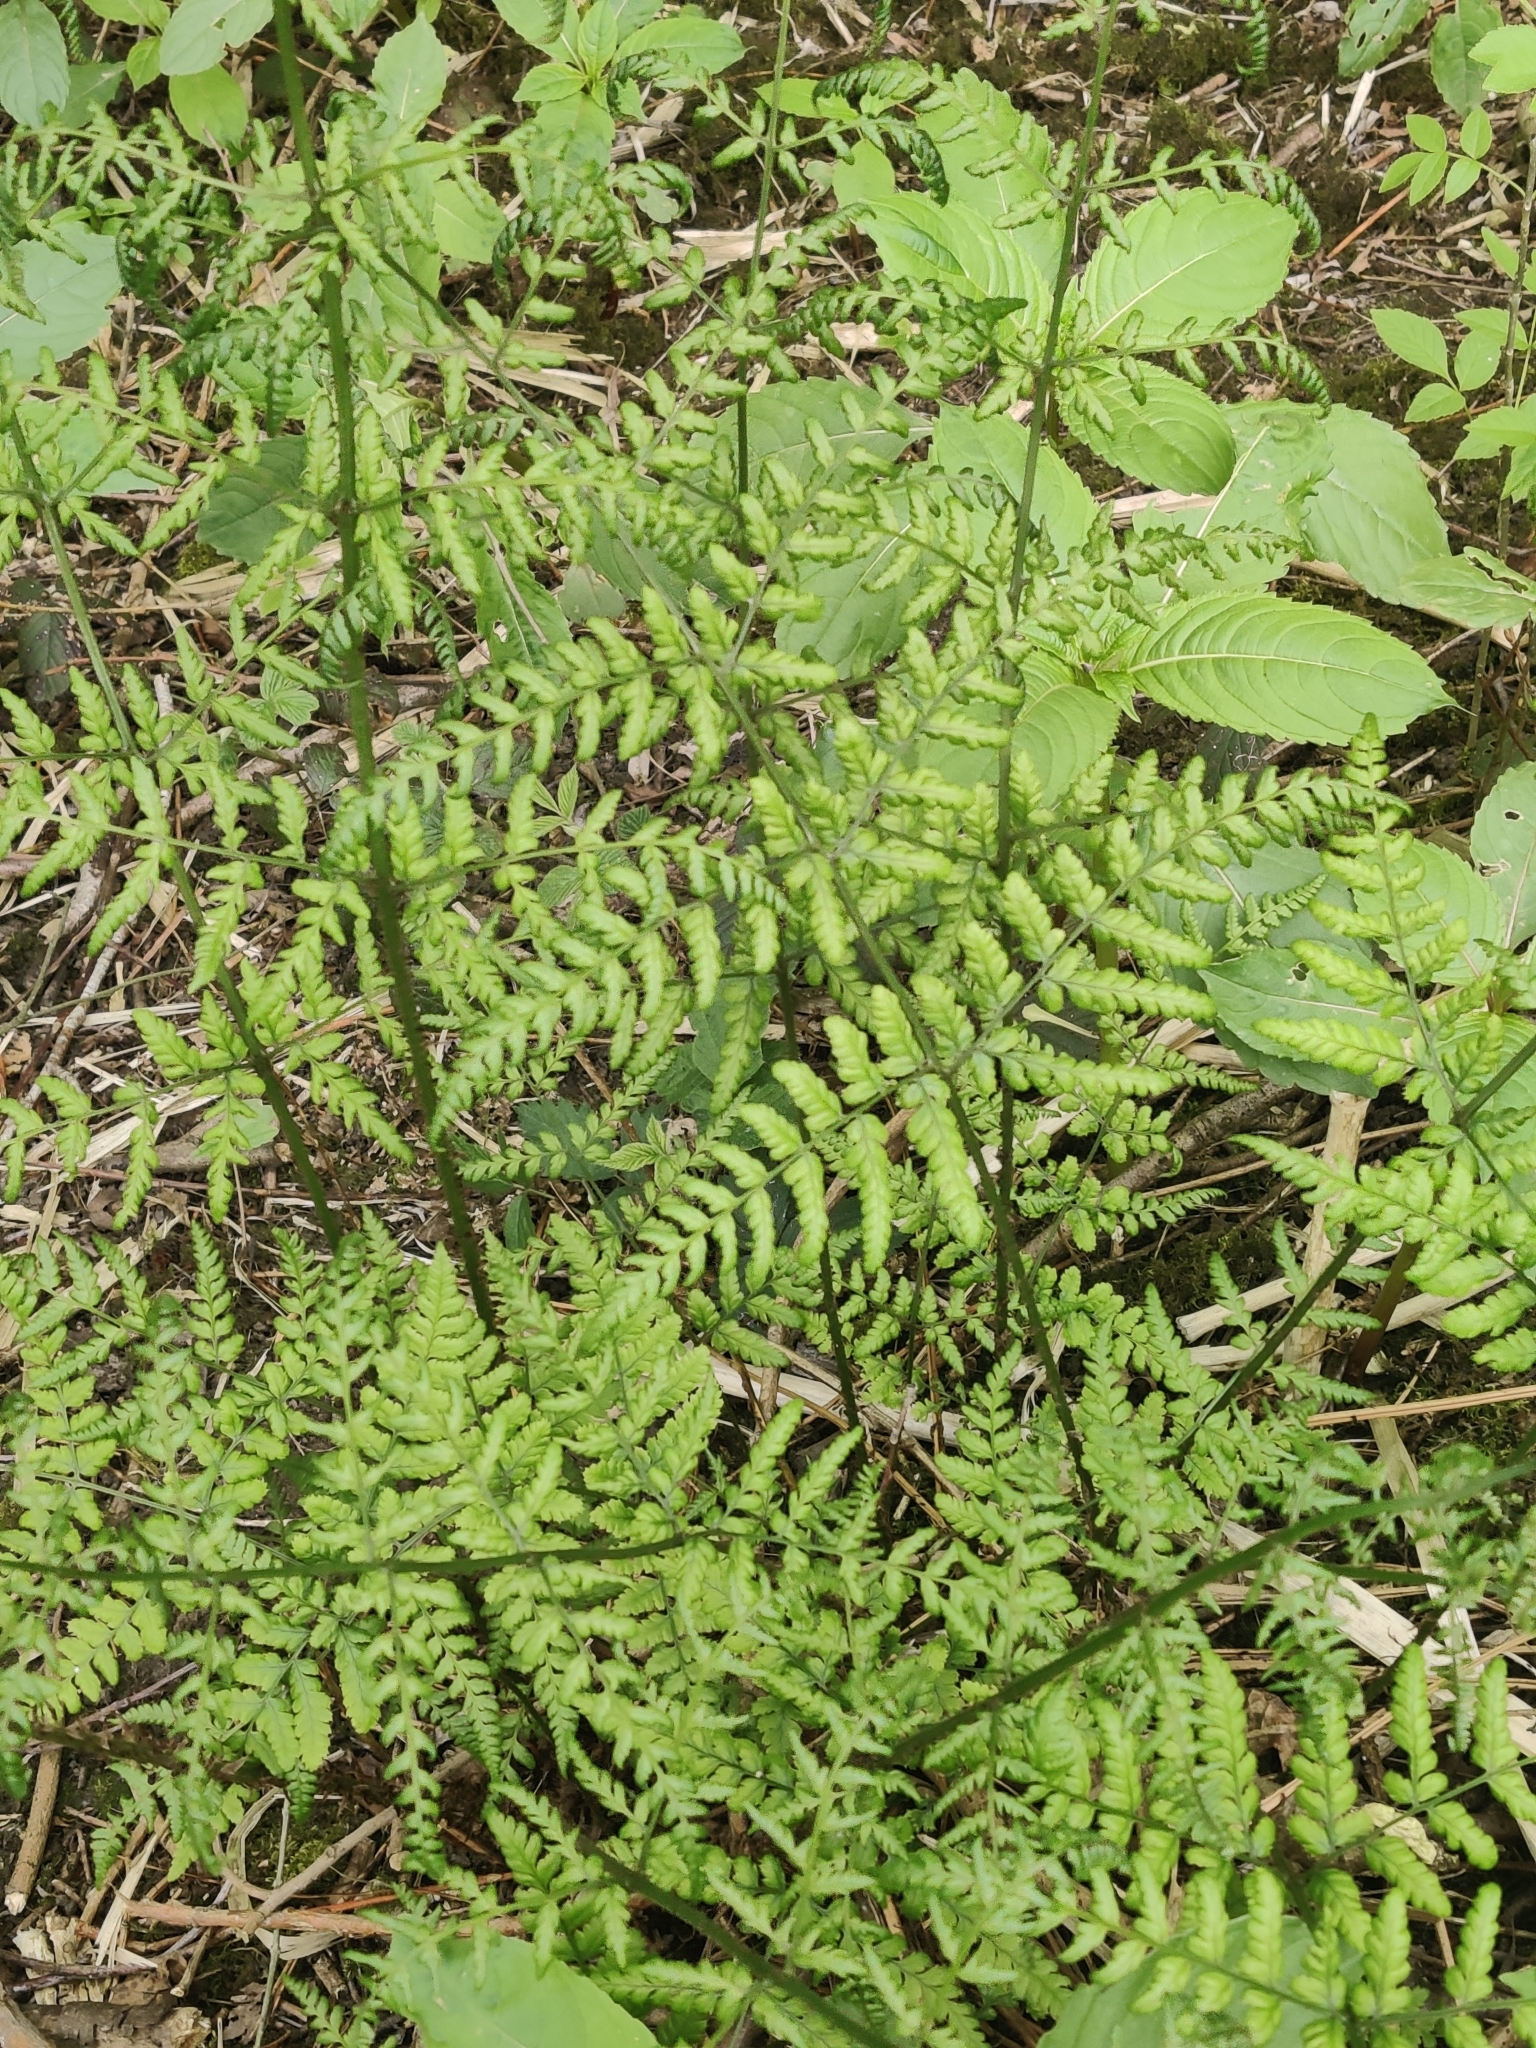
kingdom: Plantae
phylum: Tracheophyta
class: Polypodiopsida
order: Polypodiales
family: Dryopteridaceae
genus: Dryopteris
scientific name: Dryopteris dilatata
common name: Broad buckler-fern
